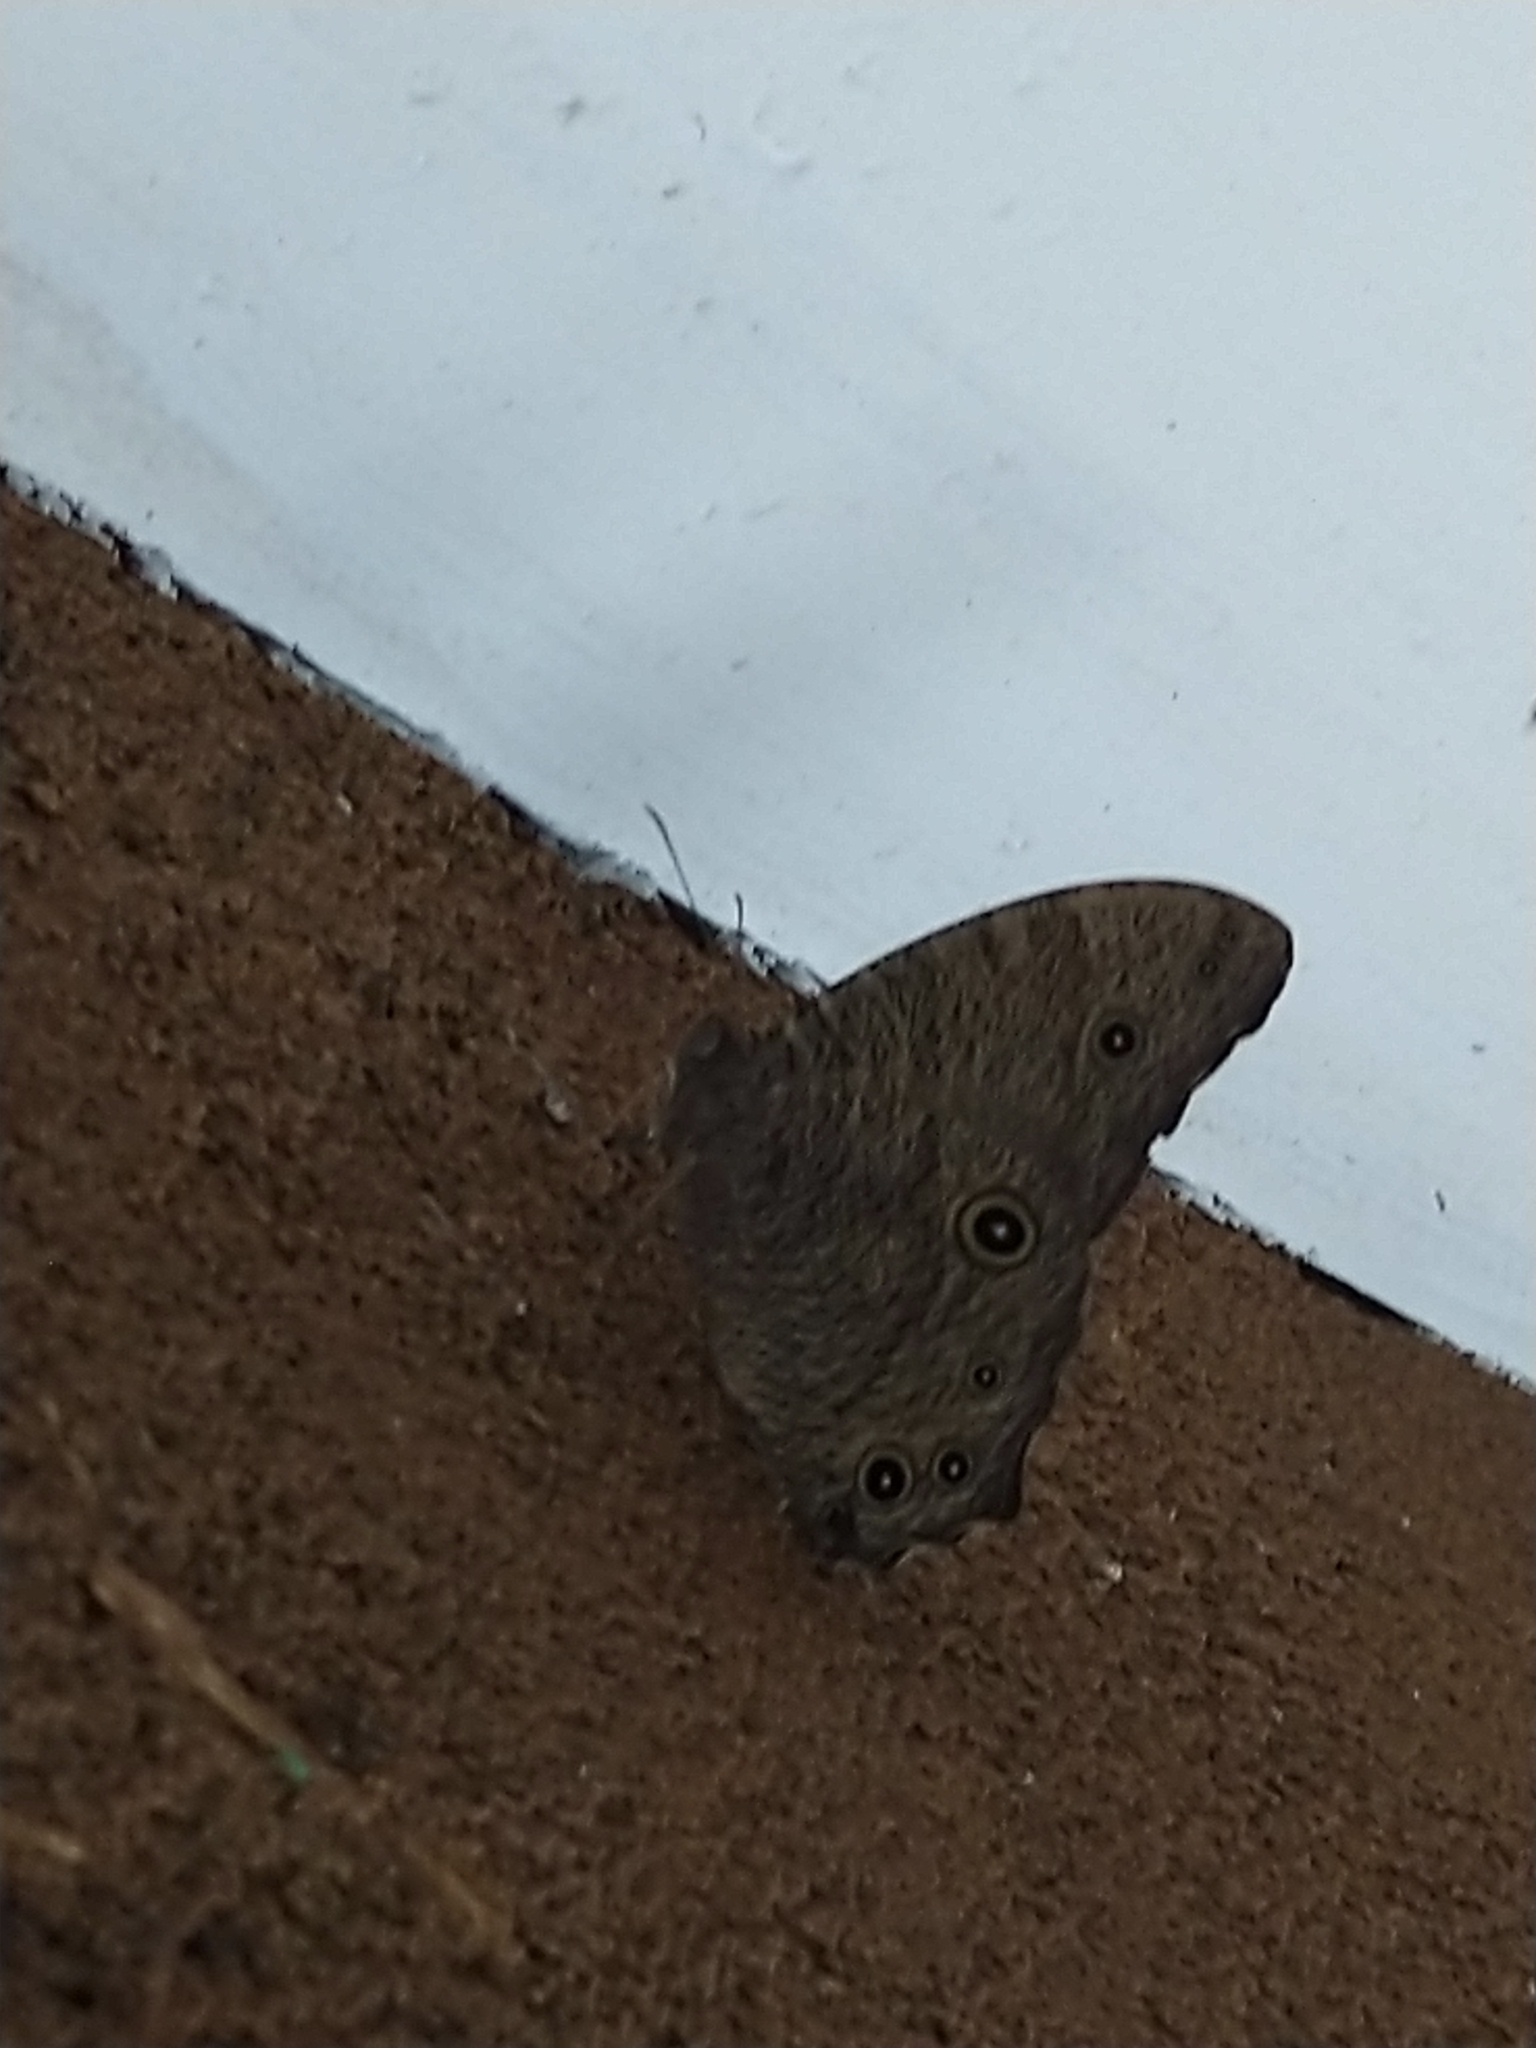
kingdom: Animalia
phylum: Arthropoda
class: Insecta
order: Lepidoptera
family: Nymphalidae
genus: Melanitis
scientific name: Melanitis leda
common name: Twilight brown
